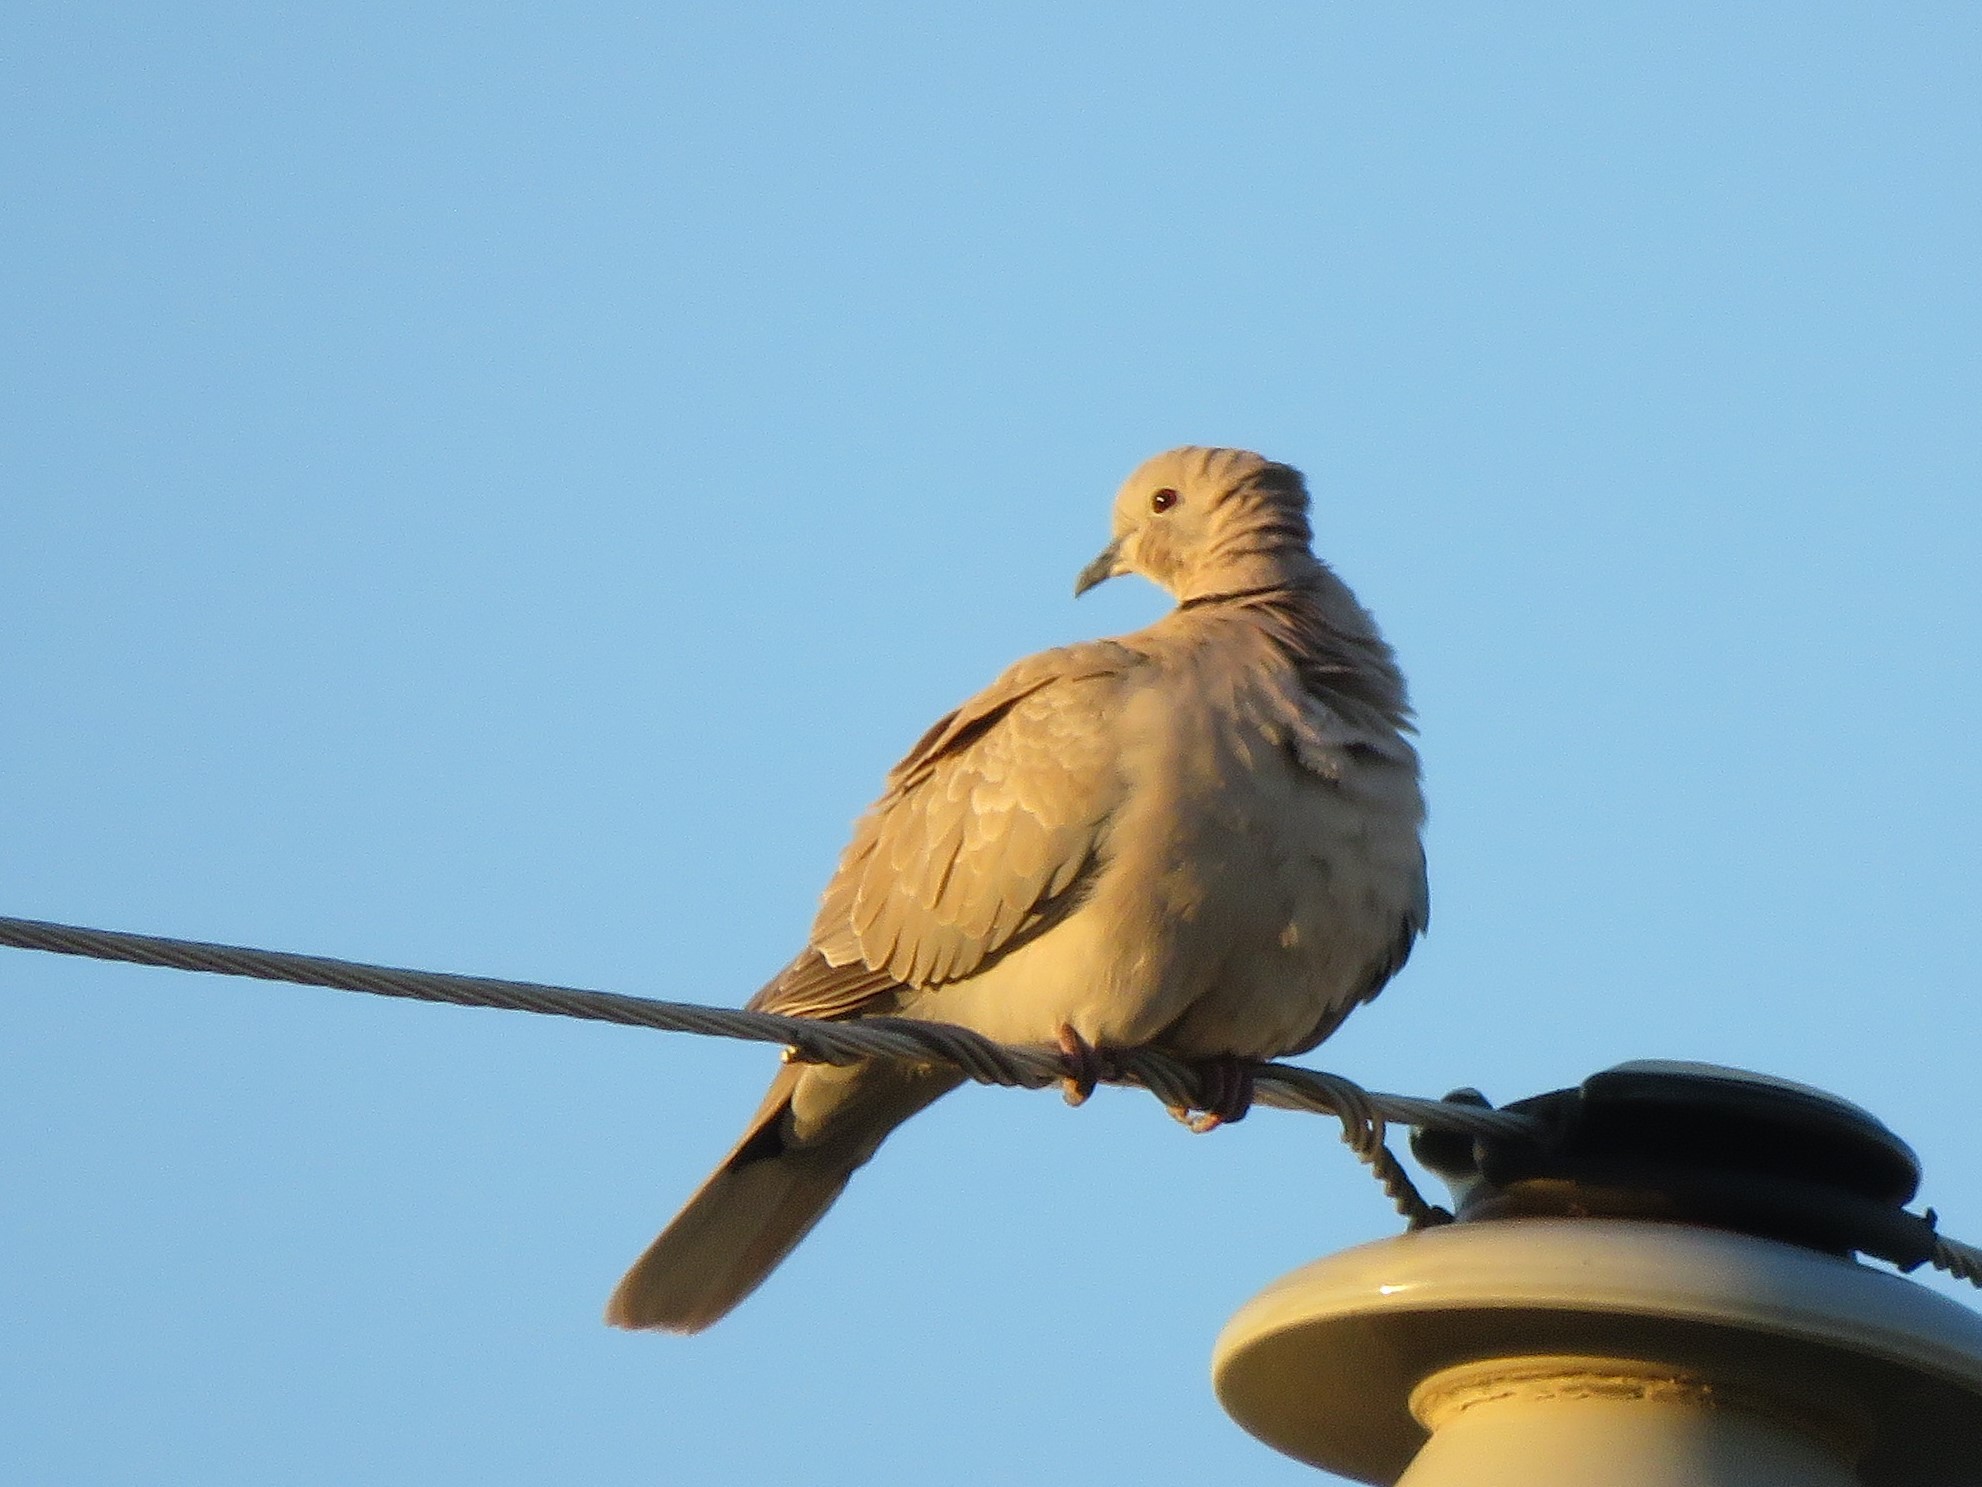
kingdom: Animalia
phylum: Chordata
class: Aves
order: Columbiformes
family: Columbidae
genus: Streptopelia
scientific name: Streptopelia decaocto
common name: Eurasian collared dove
